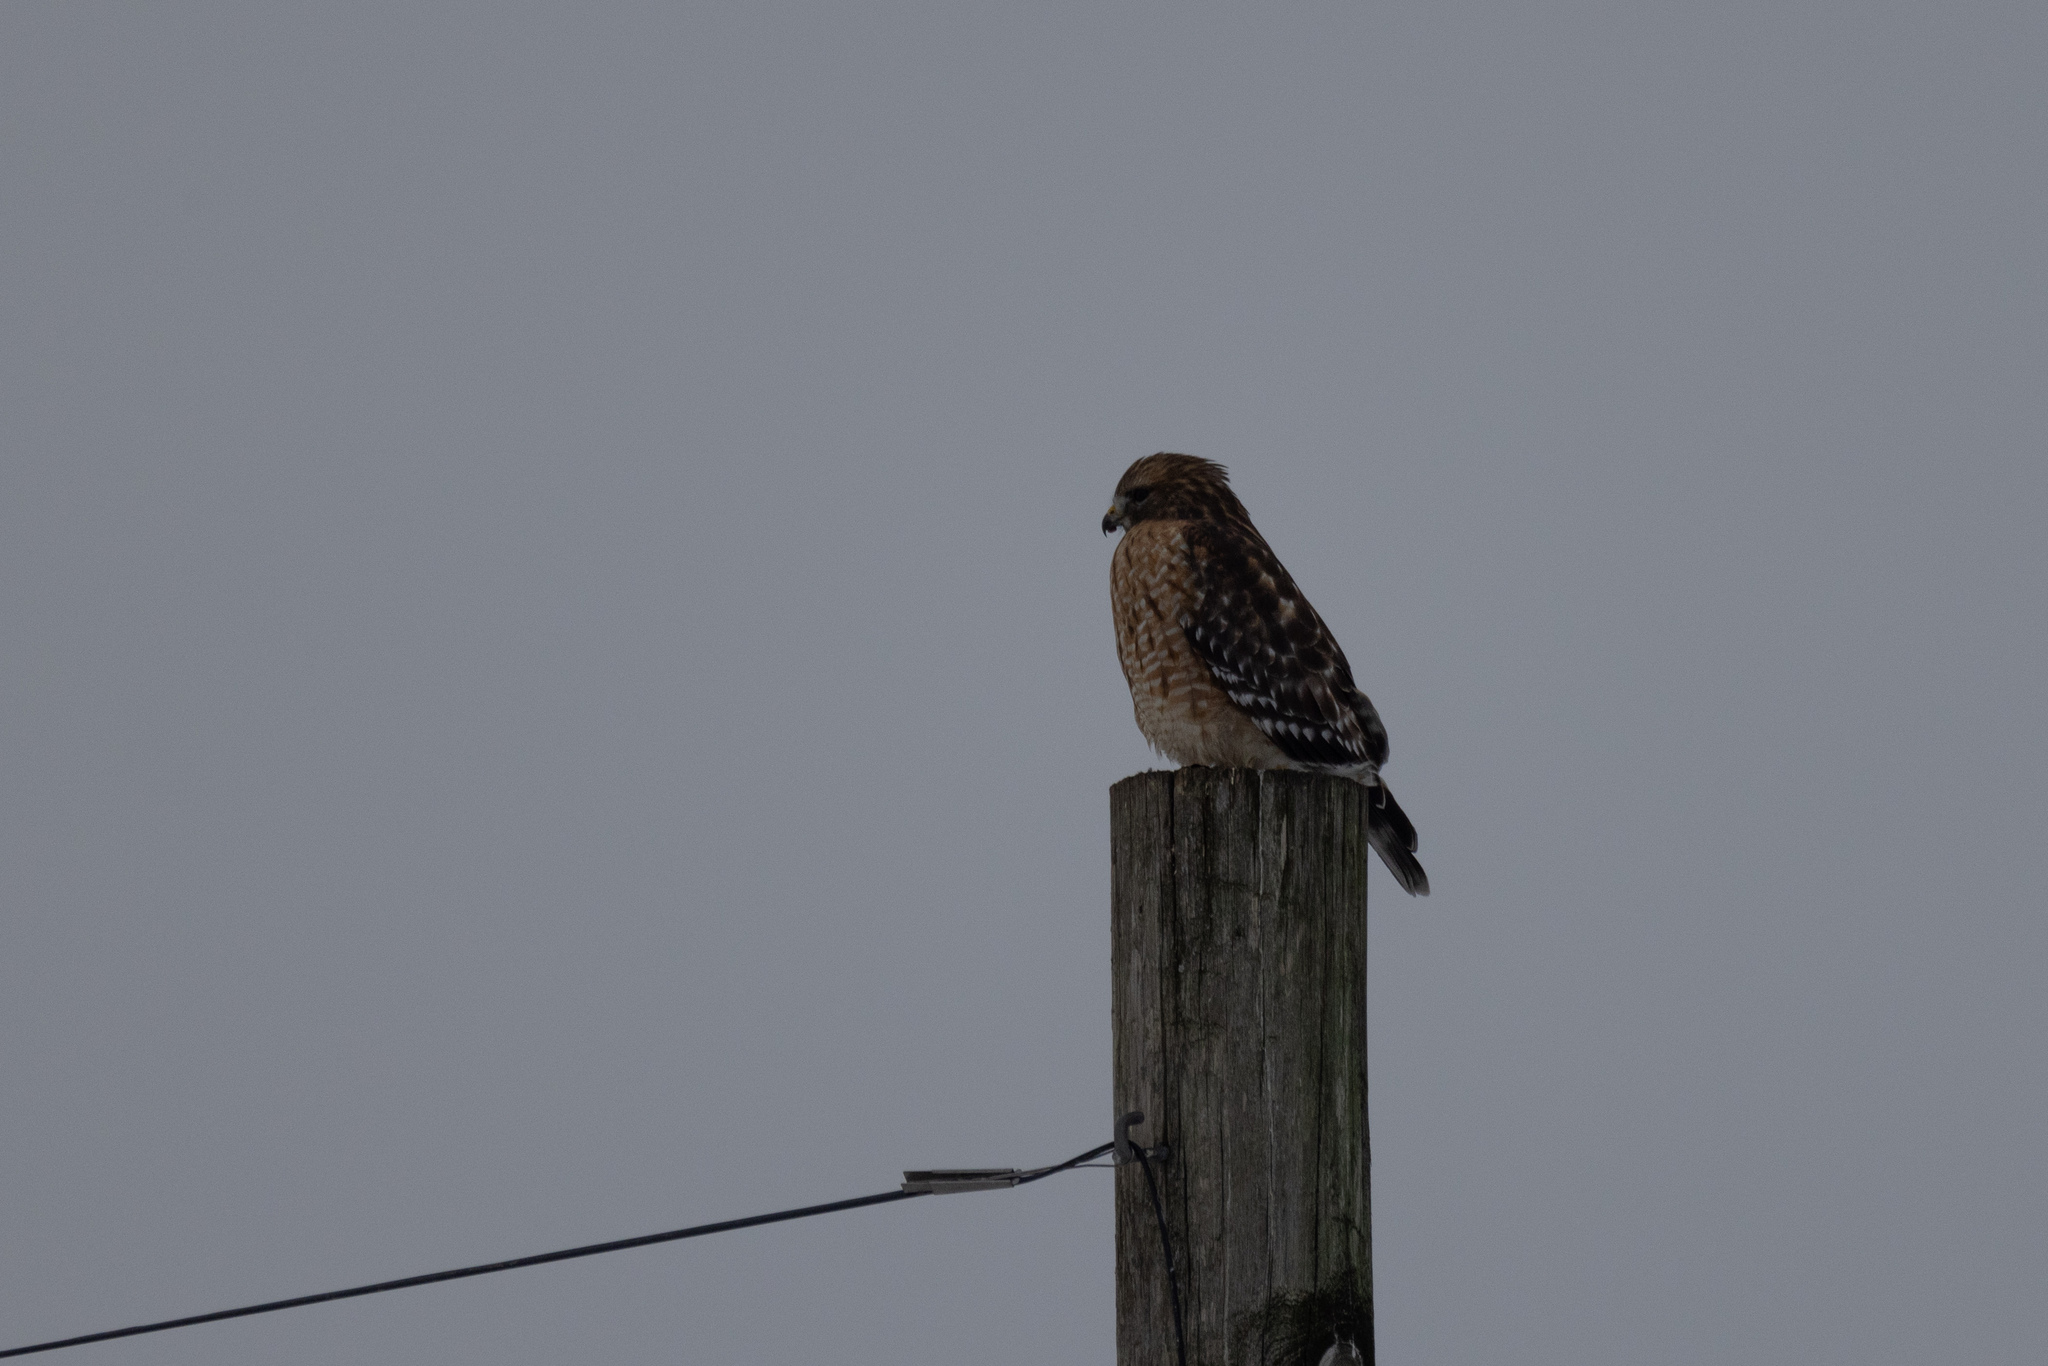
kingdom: Animalia
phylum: Chordata
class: Aves
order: Accipitriformes
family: Accipitridae
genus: Buteo
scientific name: Buteo lineatus
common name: Red-shouldered hawk
